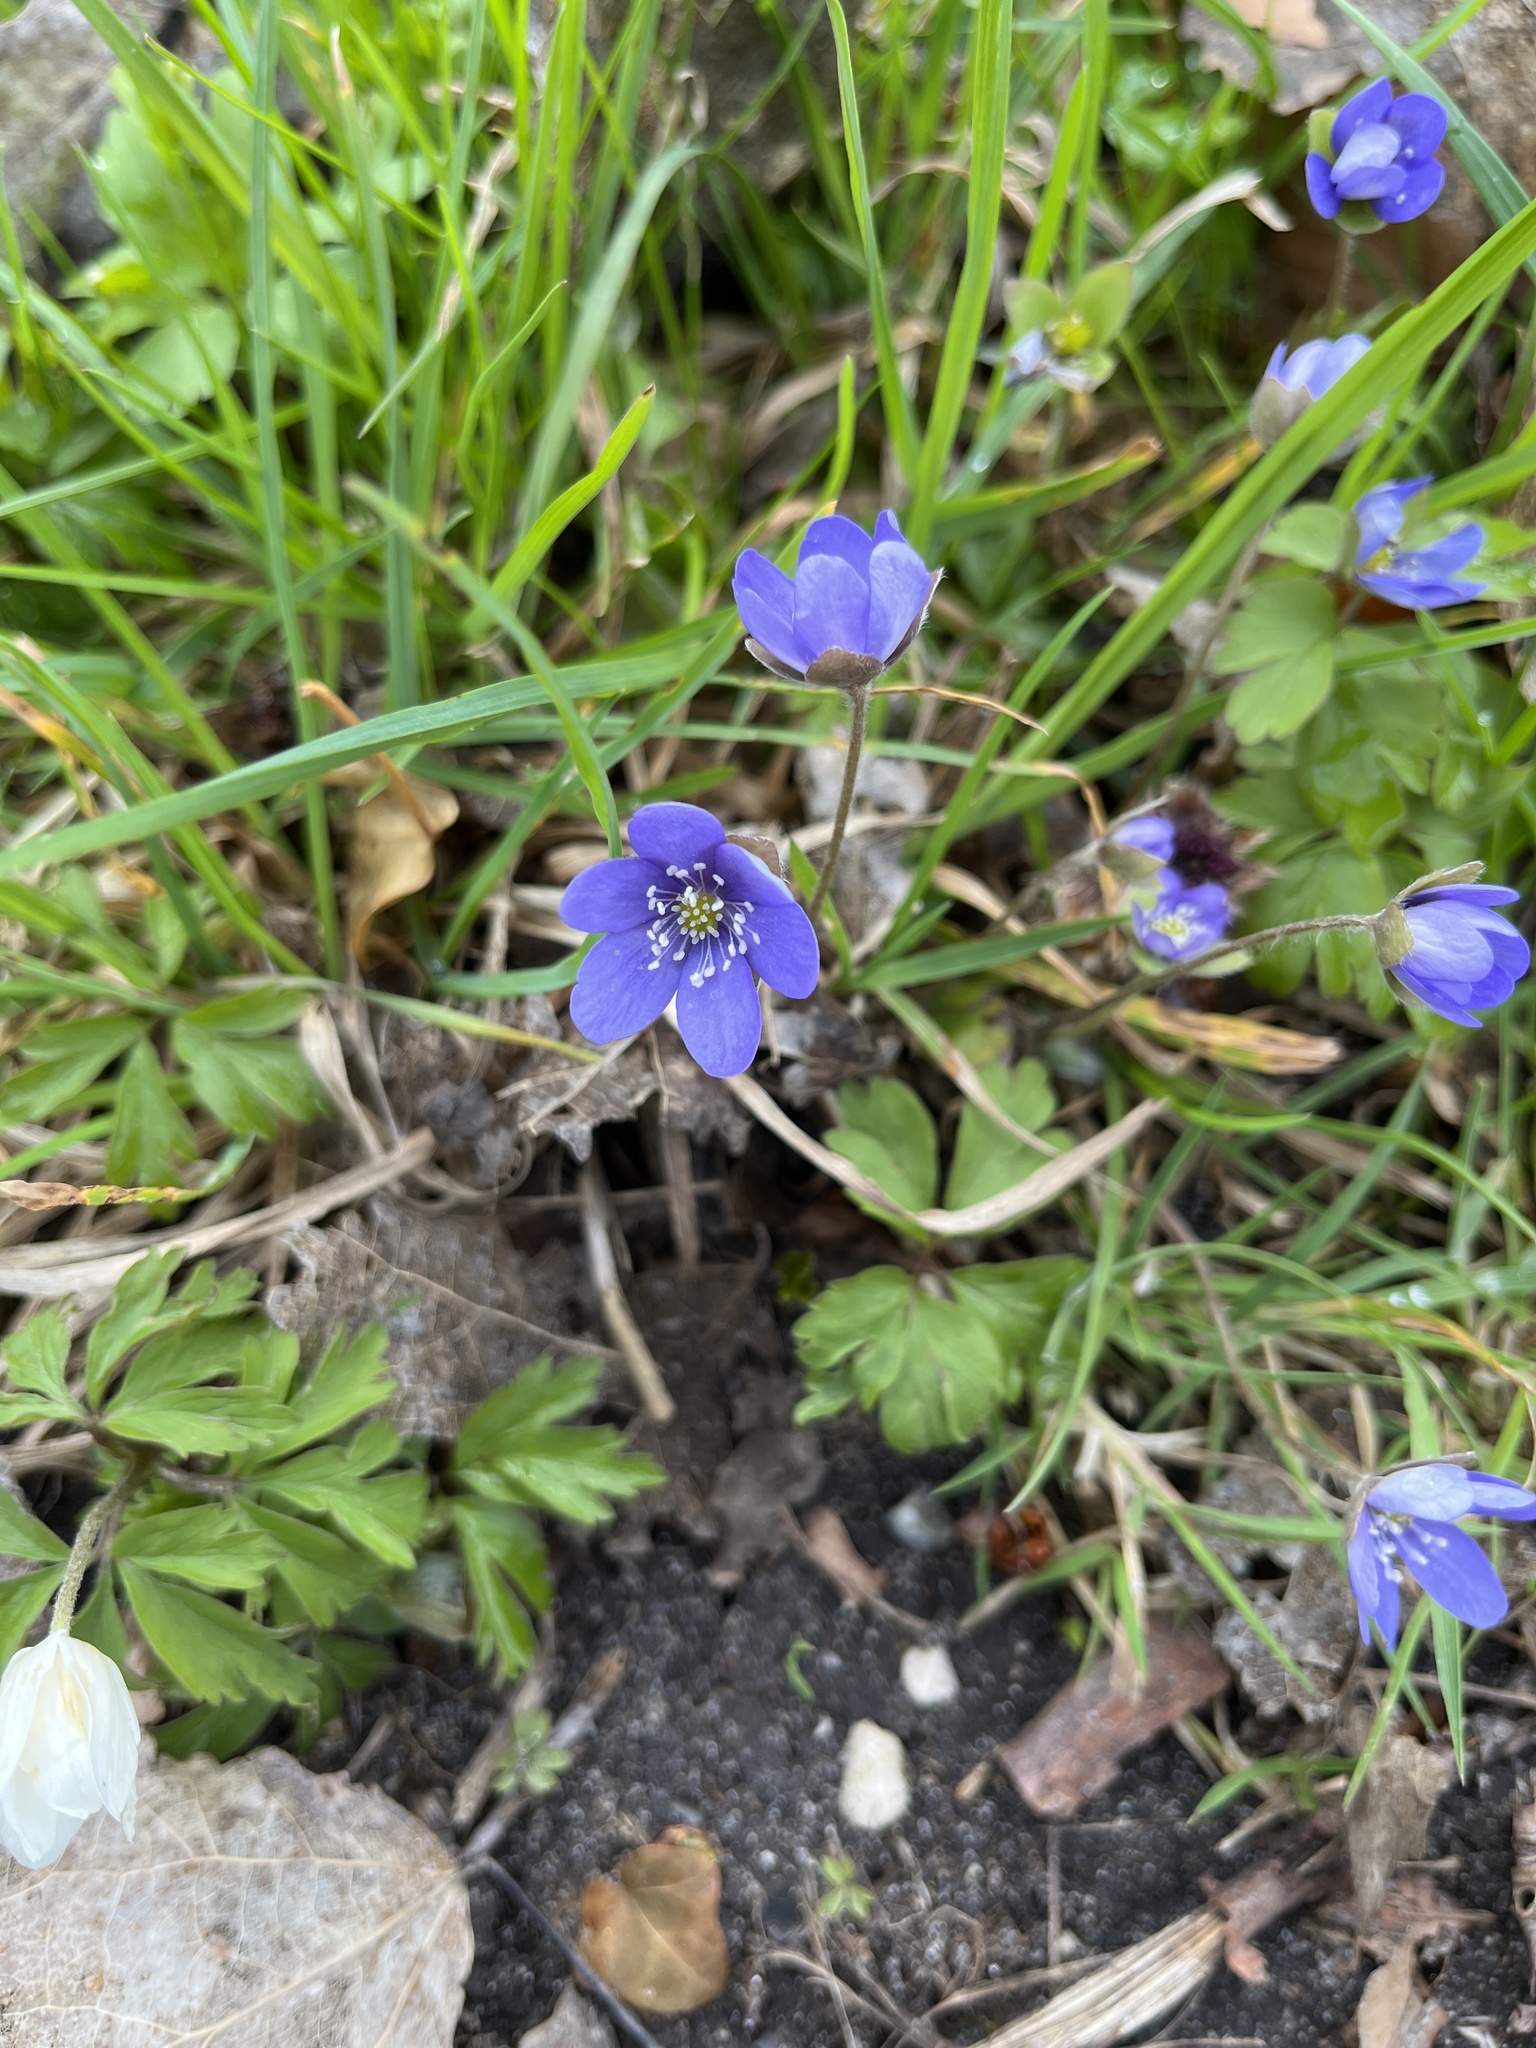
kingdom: Plantae
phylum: Tracheophyta
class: Magnoliopsida
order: Ranunculales
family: Ranunculaceae
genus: Hepatica
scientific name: Hepatica nobilis
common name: Liverleaf
